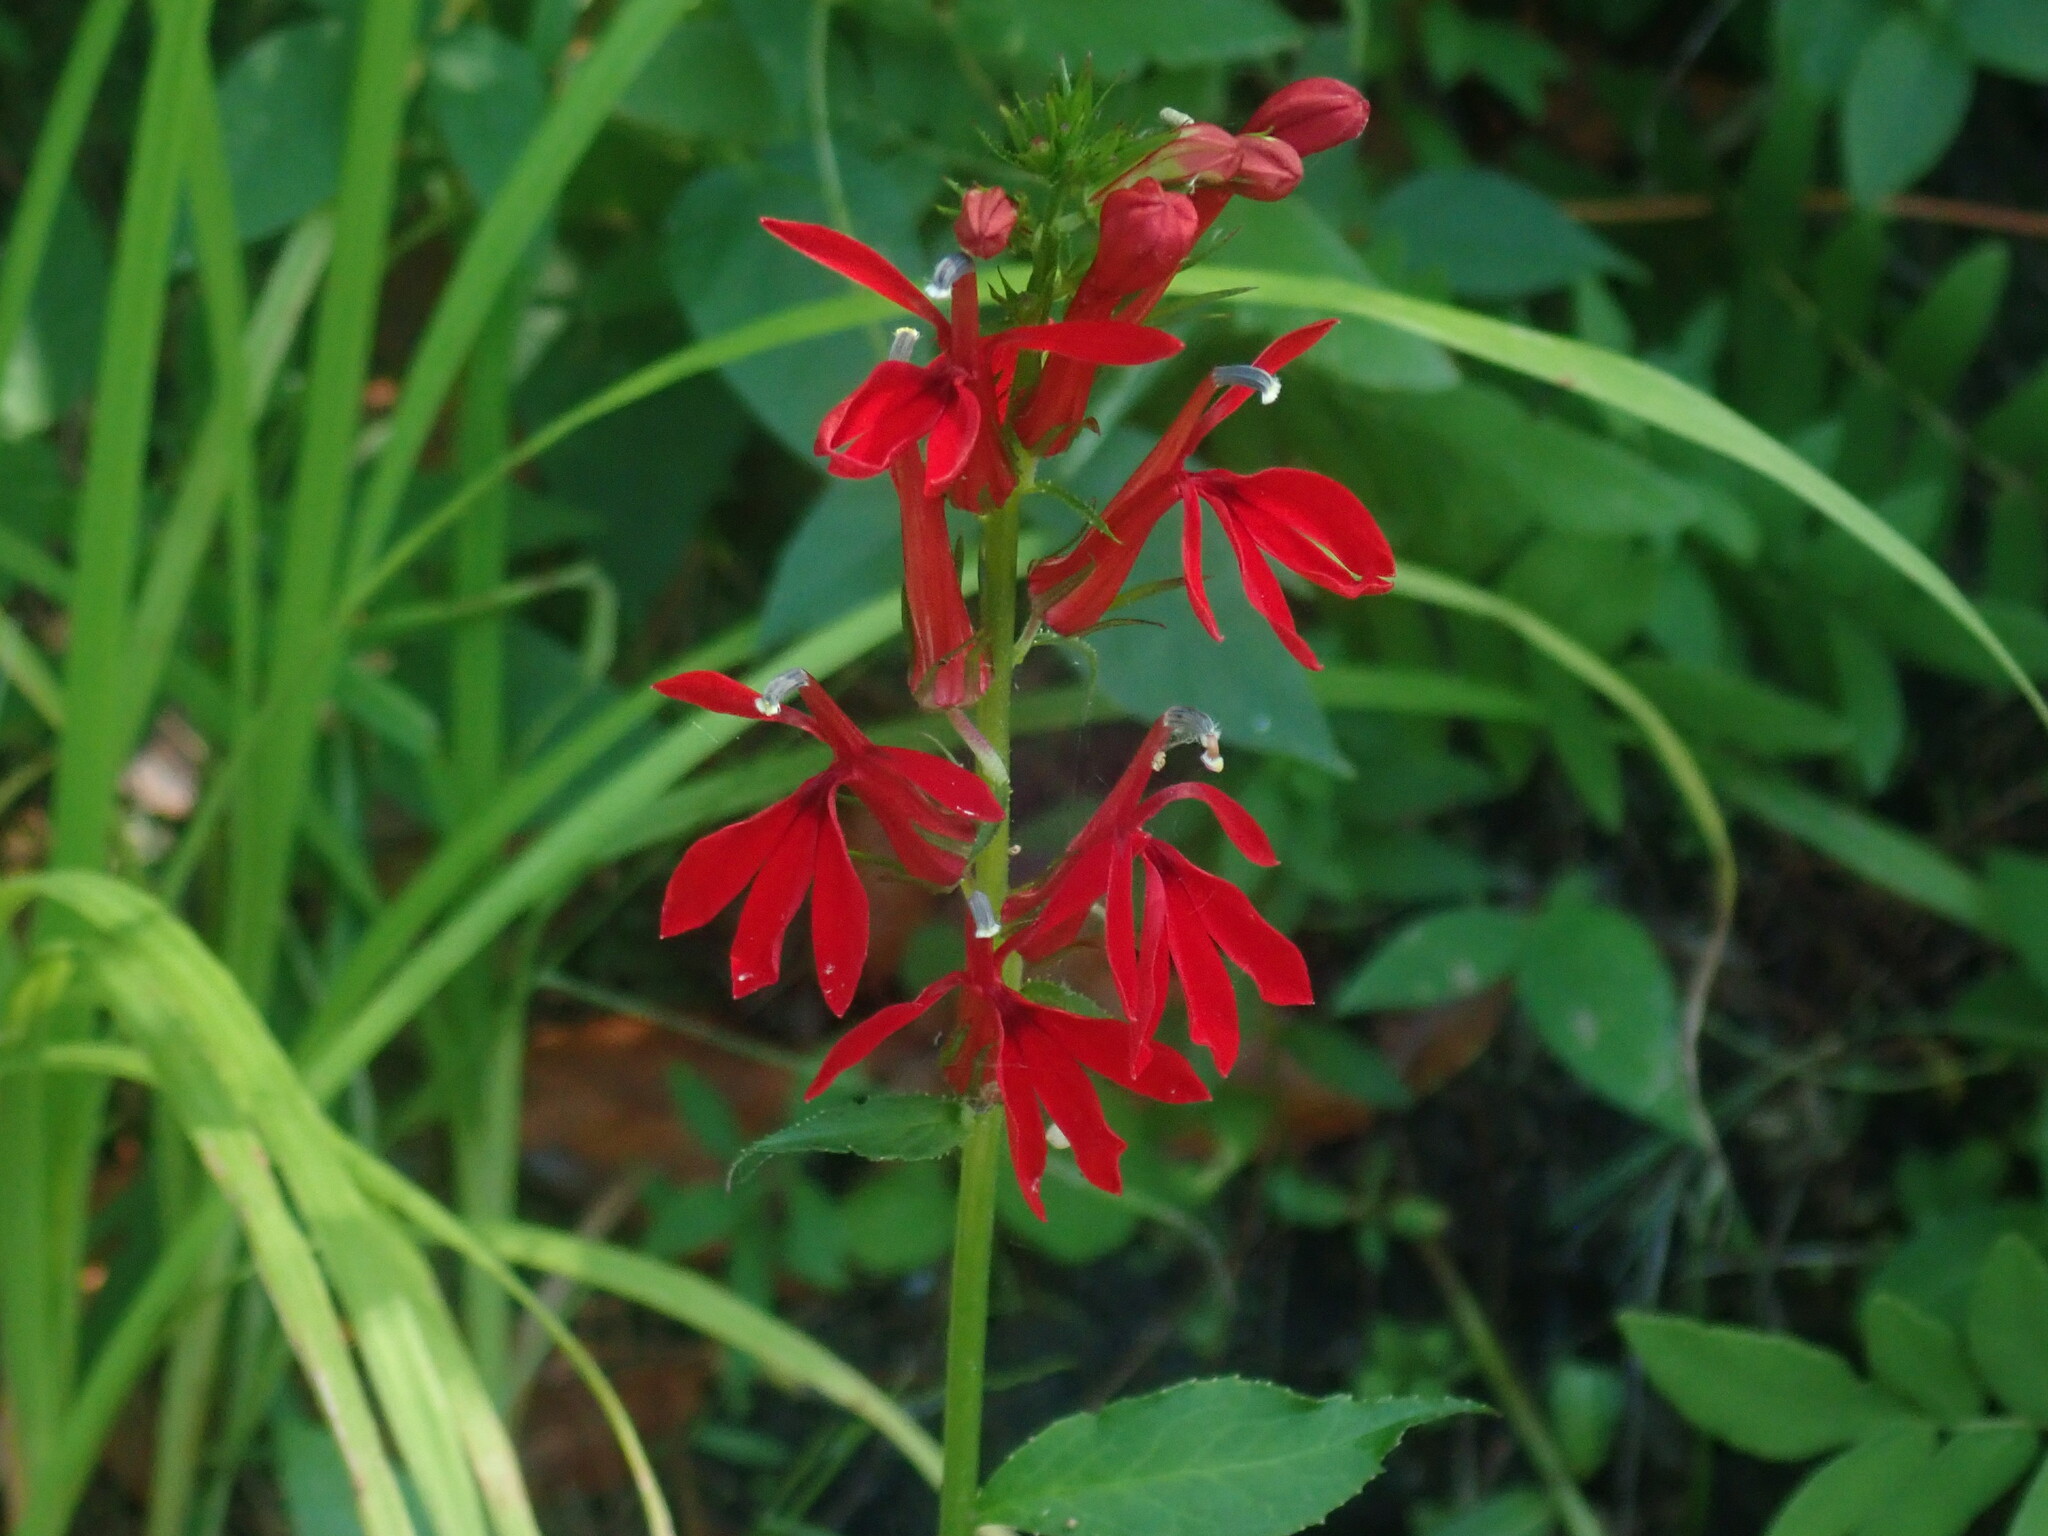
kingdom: Plantae
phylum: Tracheophyta
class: Magnoliopsida
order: Asterales
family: Campanulaceae
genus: Lobelia
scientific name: Lobelia cardinalis
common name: Cardinal flower
